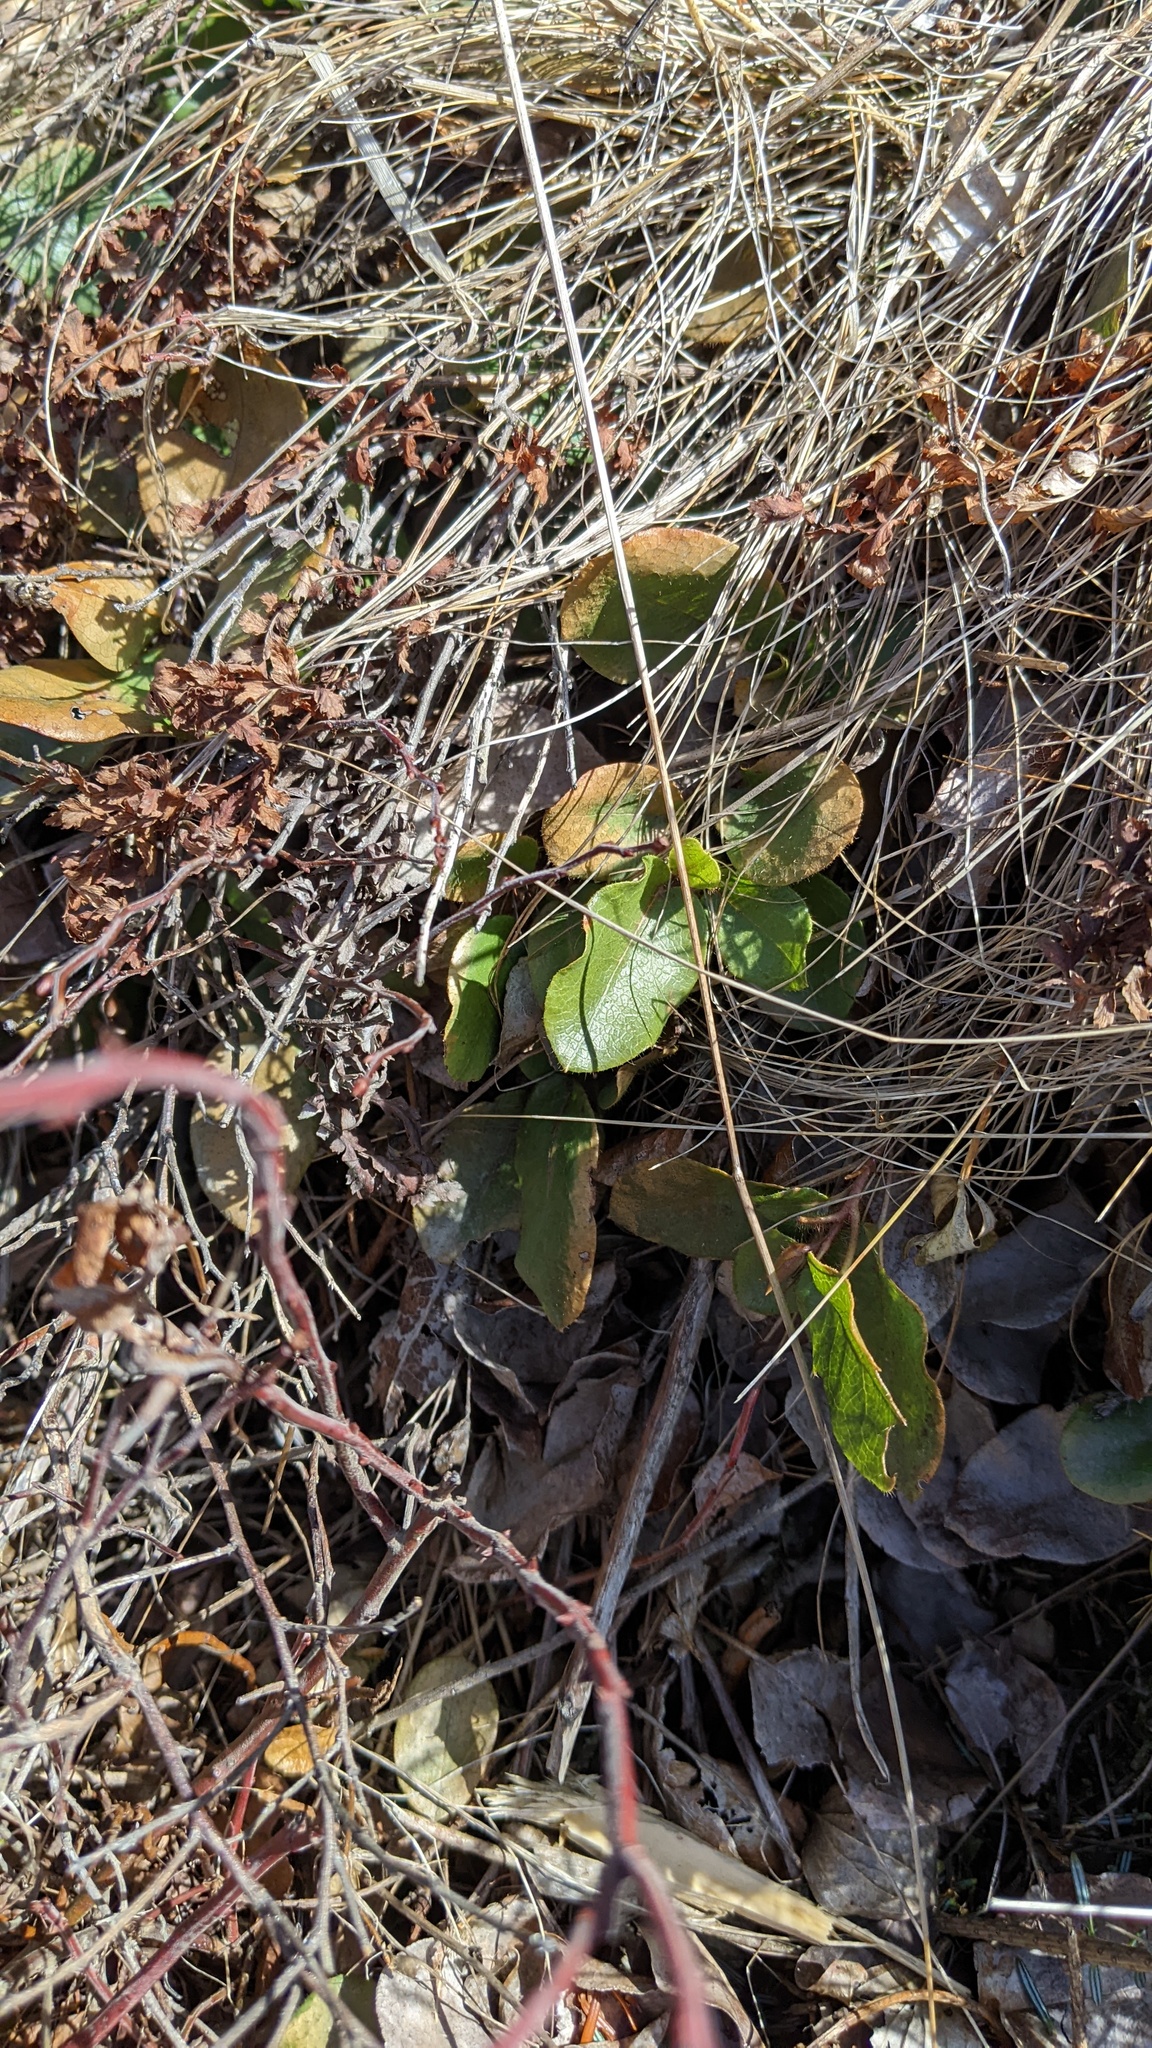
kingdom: Plantae
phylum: Tracheophyta
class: Magnoliopsida
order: Ericales
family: Ericaceae
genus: Epigaea
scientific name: Epigaea repens
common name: Gravelroot
